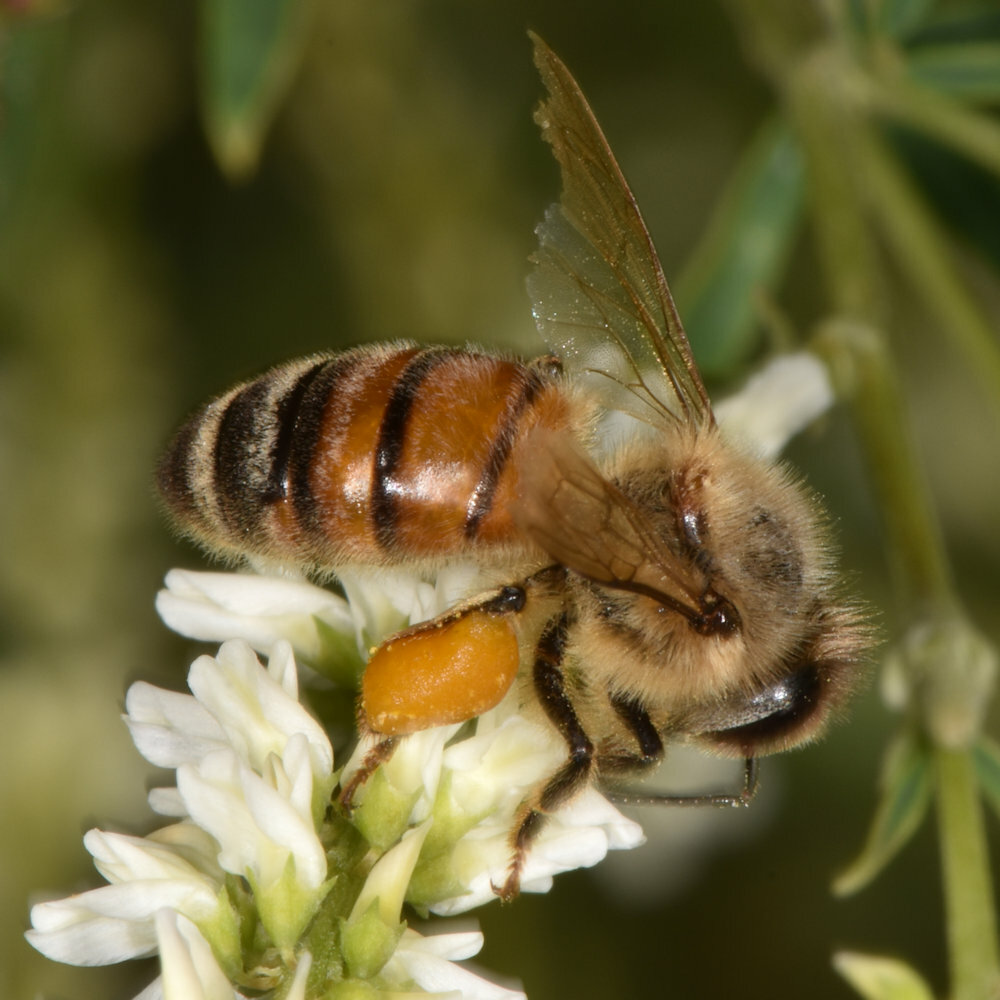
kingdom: Animalia
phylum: Arthropoda
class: Insecta
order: Hymenoptera
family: Apidae
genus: Apis
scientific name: Apis mellifera
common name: Honey bee
